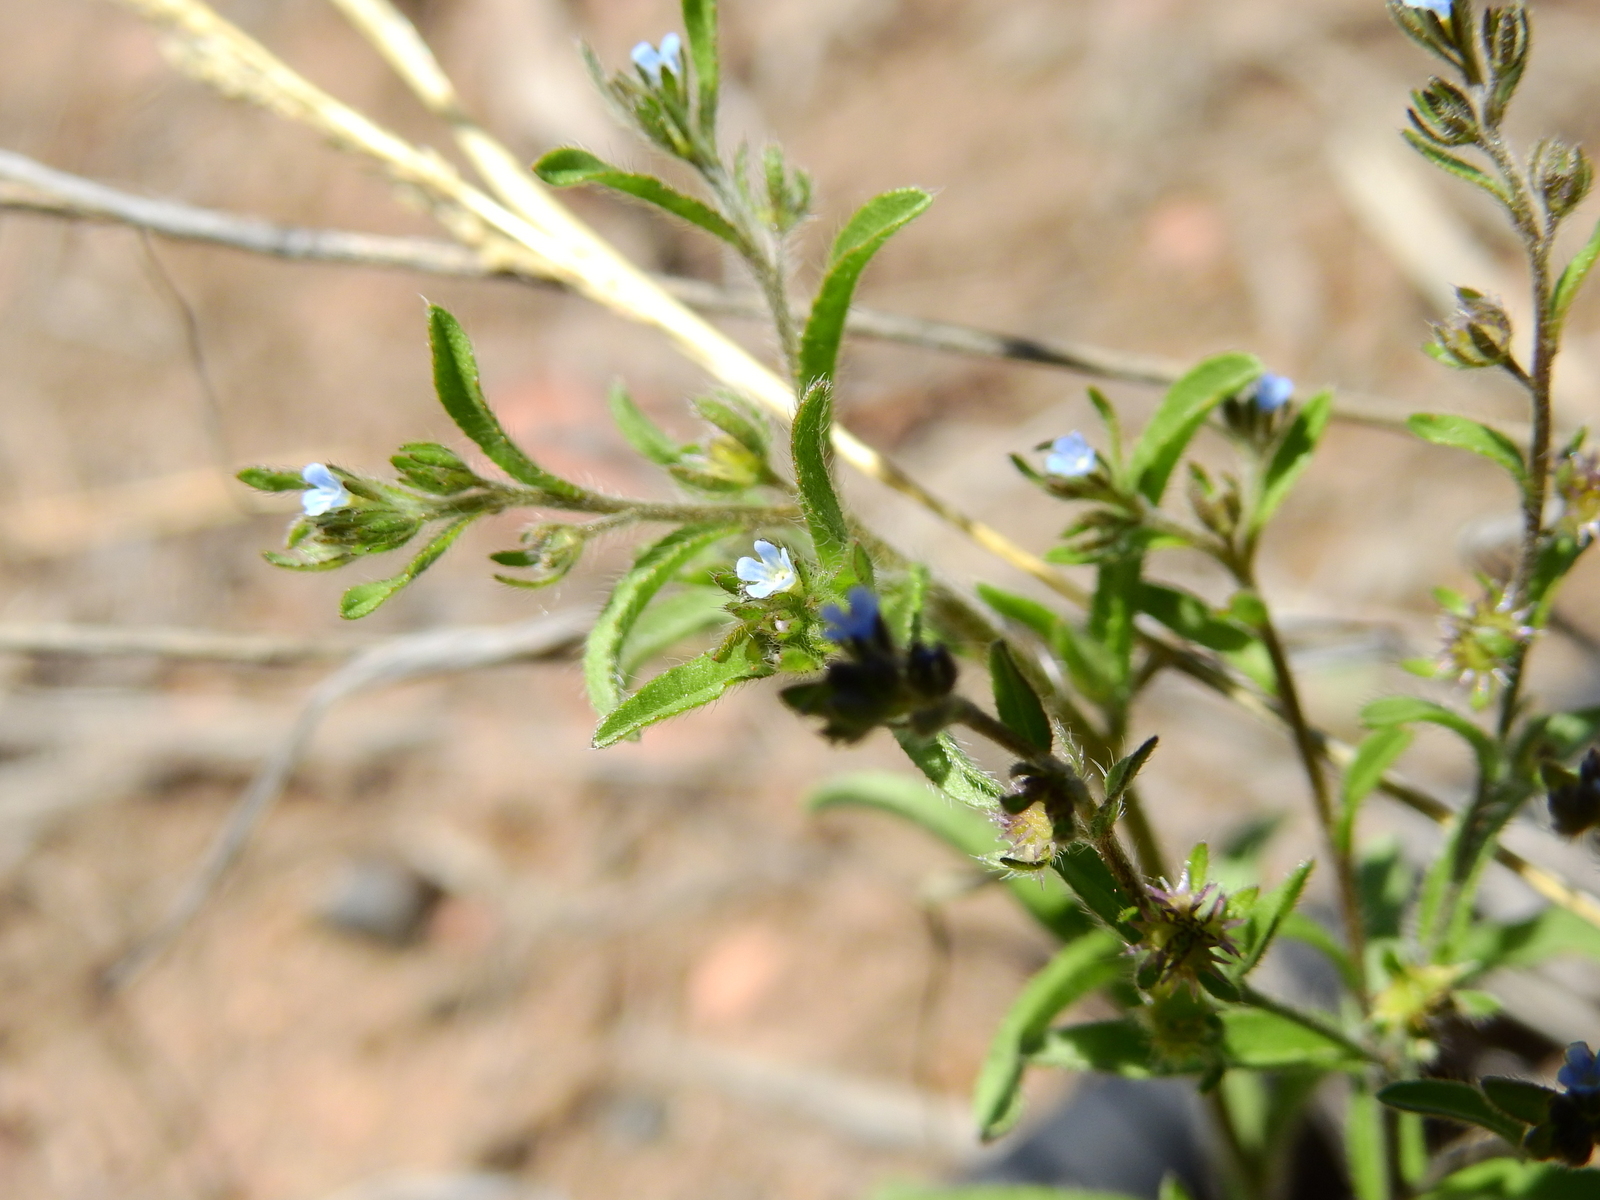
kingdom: Plantae
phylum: Tracheophyta
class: Magnoliopsida
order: Boraginales
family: Boraginaceae
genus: Lappula
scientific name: Lappula redowskii
